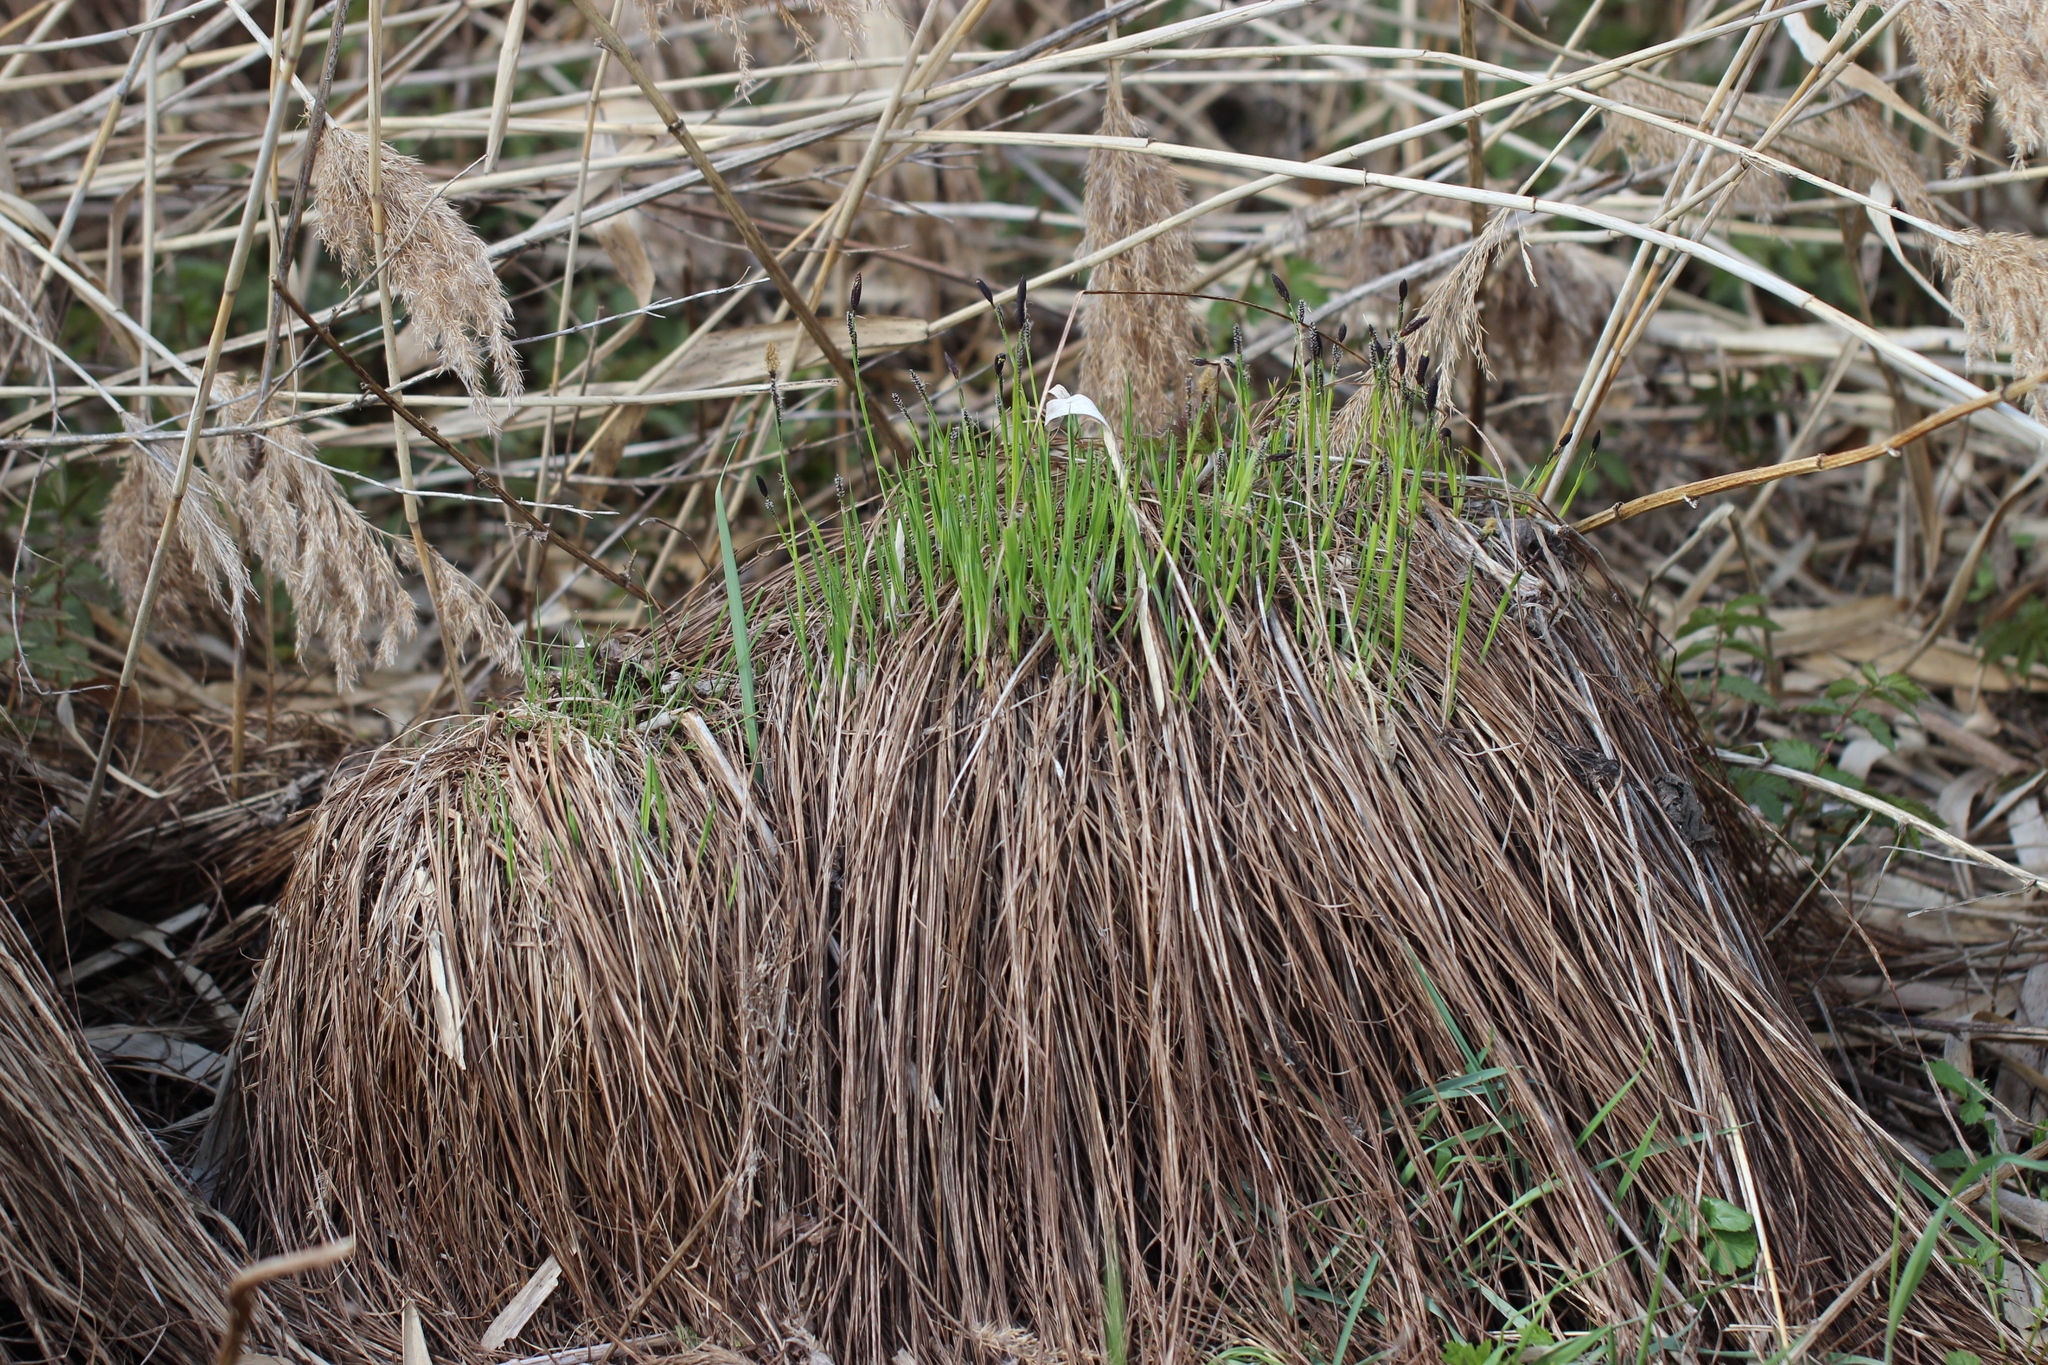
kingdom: Plantae
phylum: Tracheophyta
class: Liliopsida
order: Poales
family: Cyperaceae
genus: Carex
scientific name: Carex cespitosa
